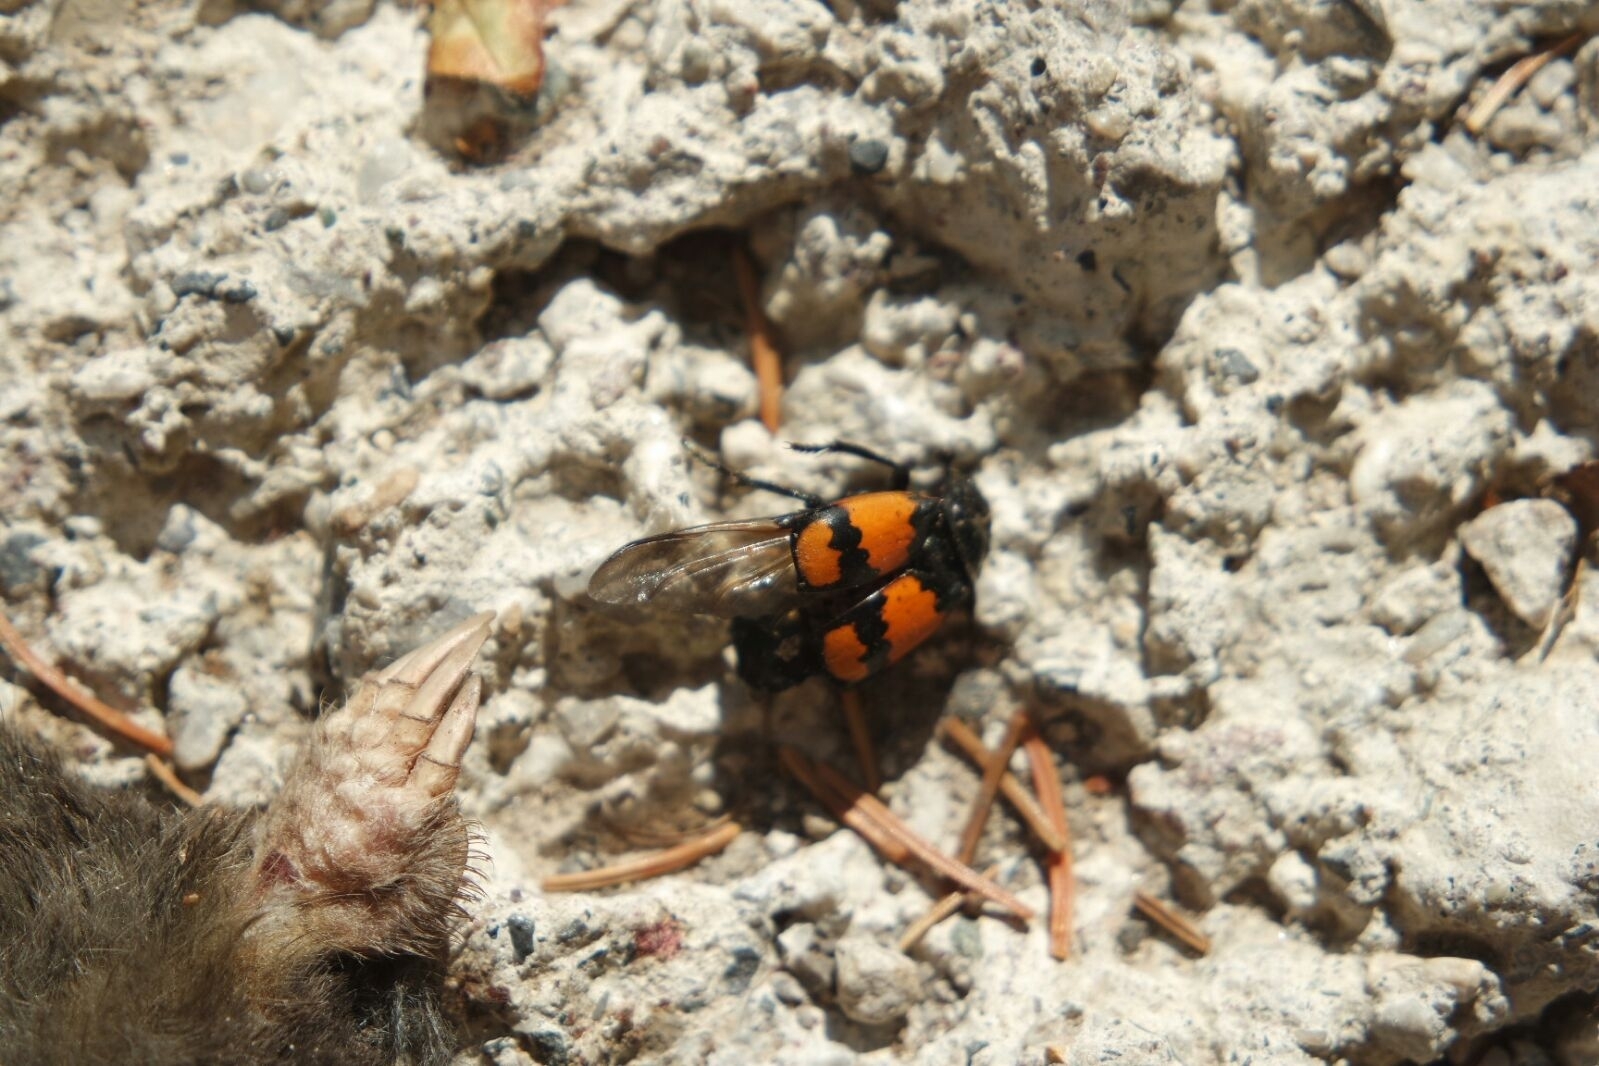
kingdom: Animalia
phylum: Arthropoda
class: Insecta
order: Coleoptera
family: Staphylinidae
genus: Nicrophorus
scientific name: Nicrophorus vespilloides
